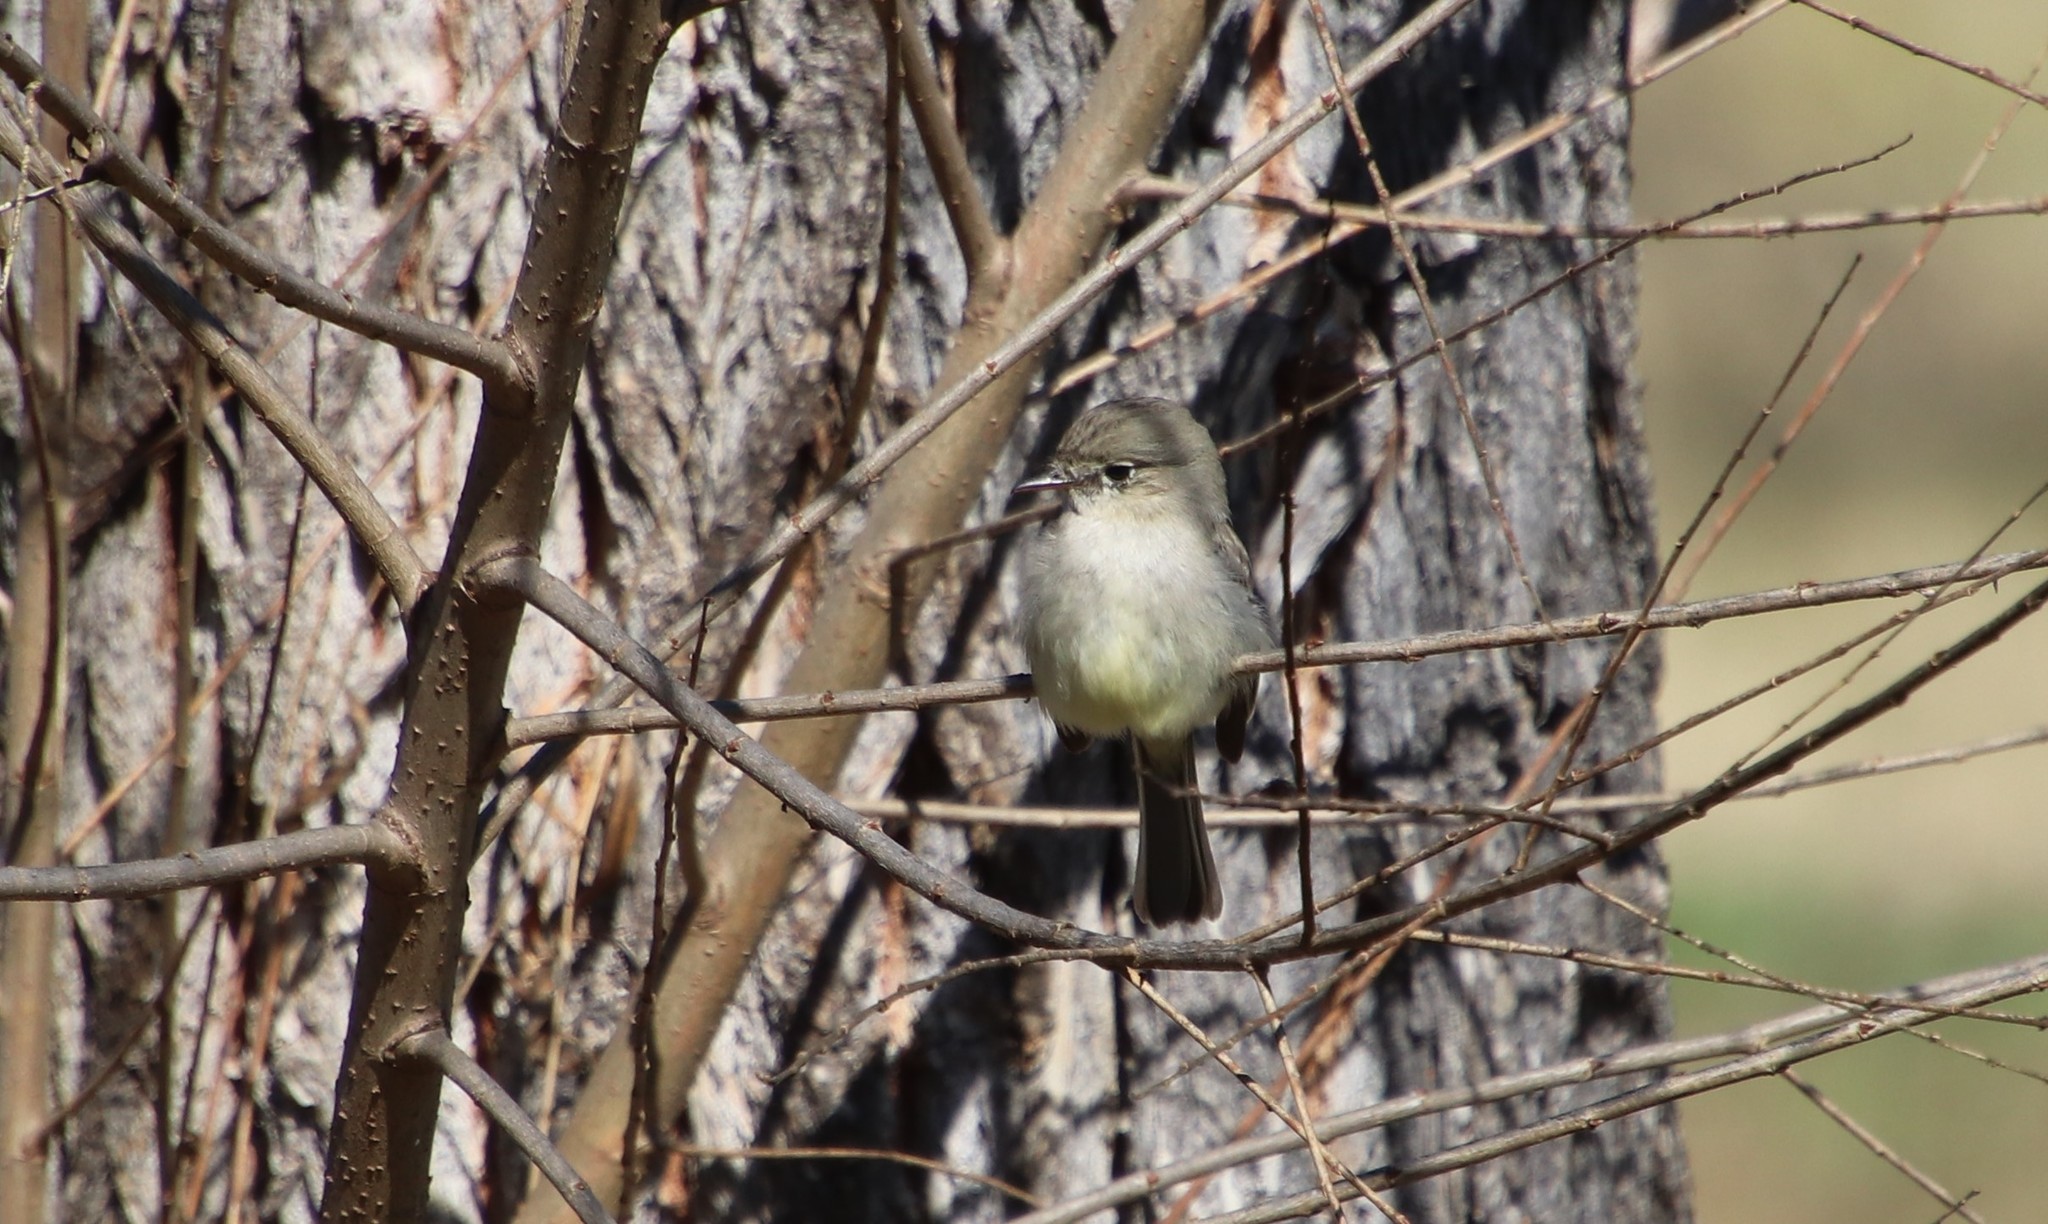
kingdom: Animalia
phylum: Chordata
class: Aves
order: Passeriformes
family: Tyrannidae
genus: Empidonax
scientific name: Empidonax wrightii
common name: Gray flycatcher
